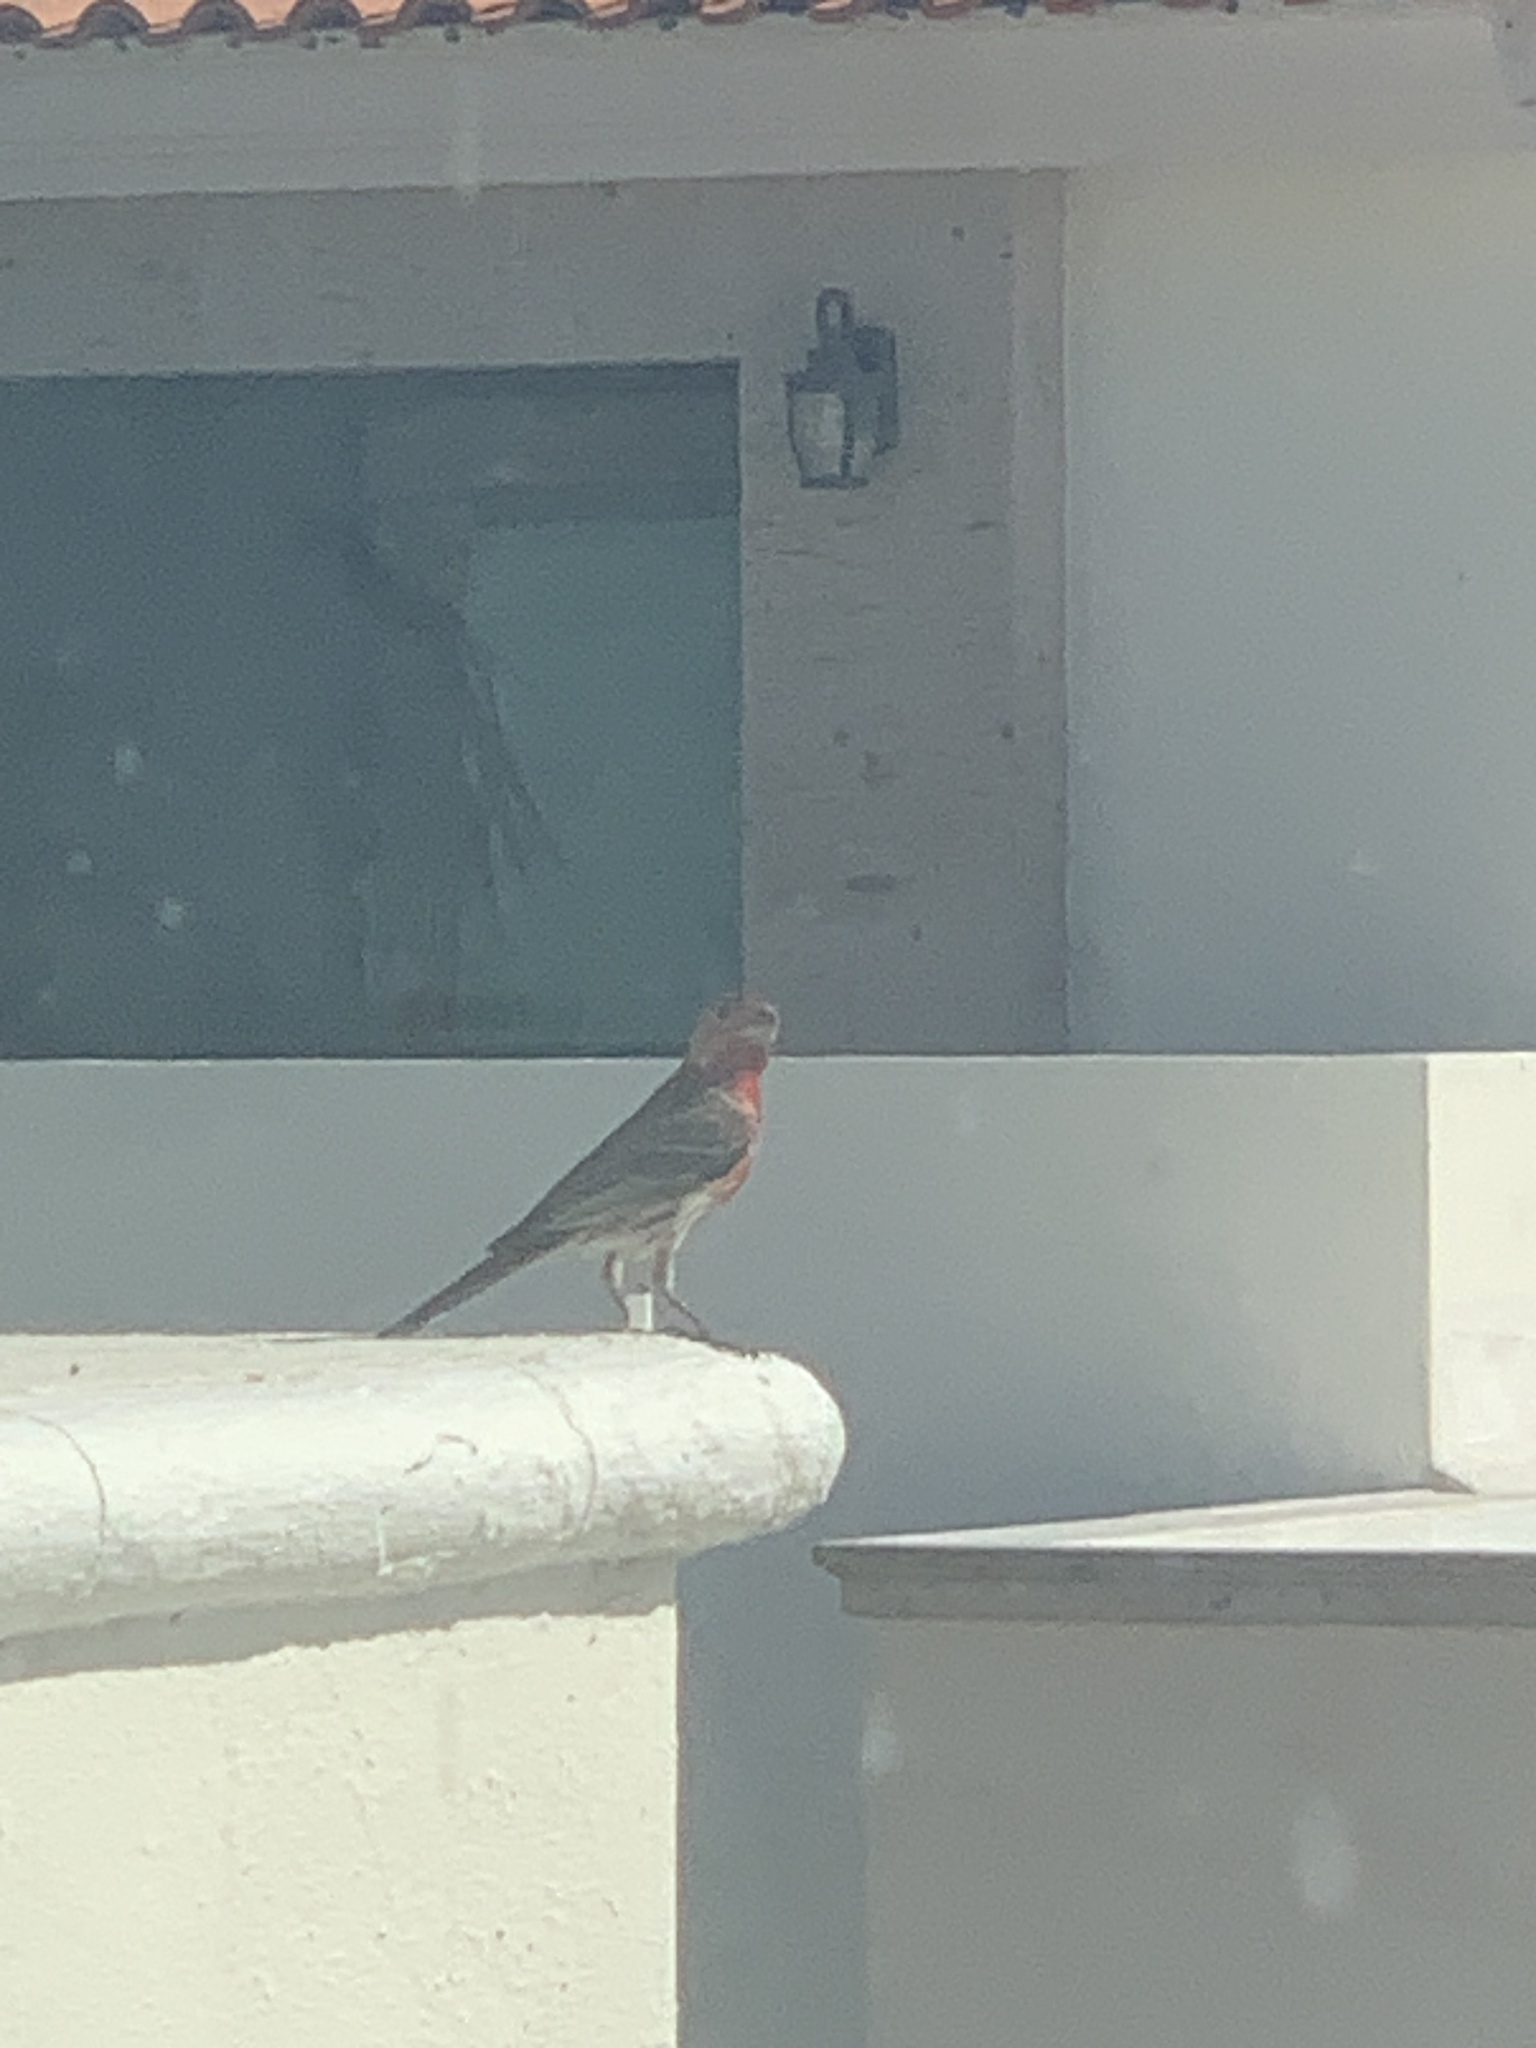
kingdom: Animalia
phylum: Chordata
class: Aves
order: Passeriformes
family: Fringillidae
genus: Haemorhous
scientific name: Haemorhous mexicanus
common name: House finch
